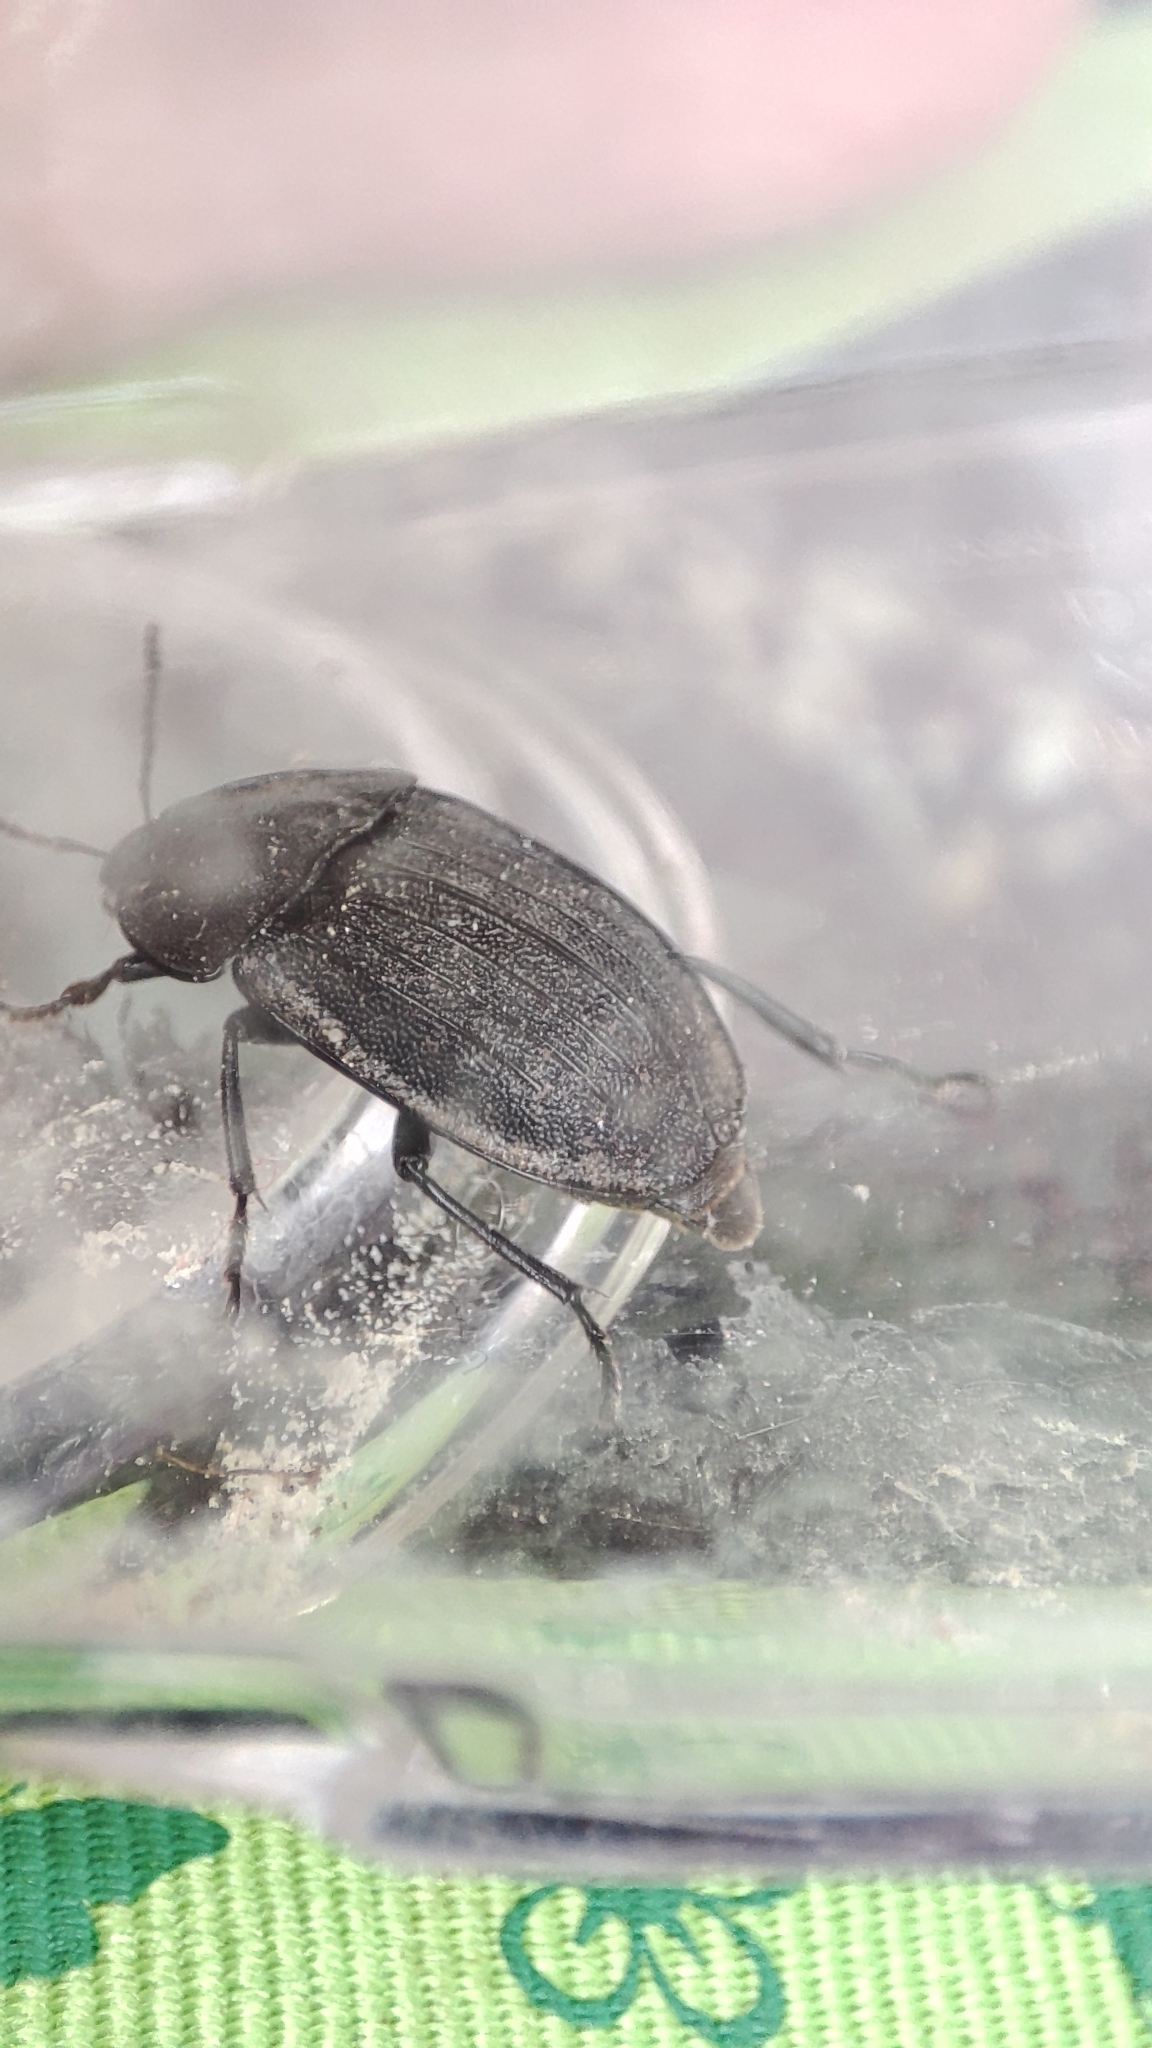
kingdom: Animalia
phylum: Arthropoda
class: Insecta
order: Coleoptera
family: Staphylinidae
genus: Silpha
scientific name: Silpha atrata
